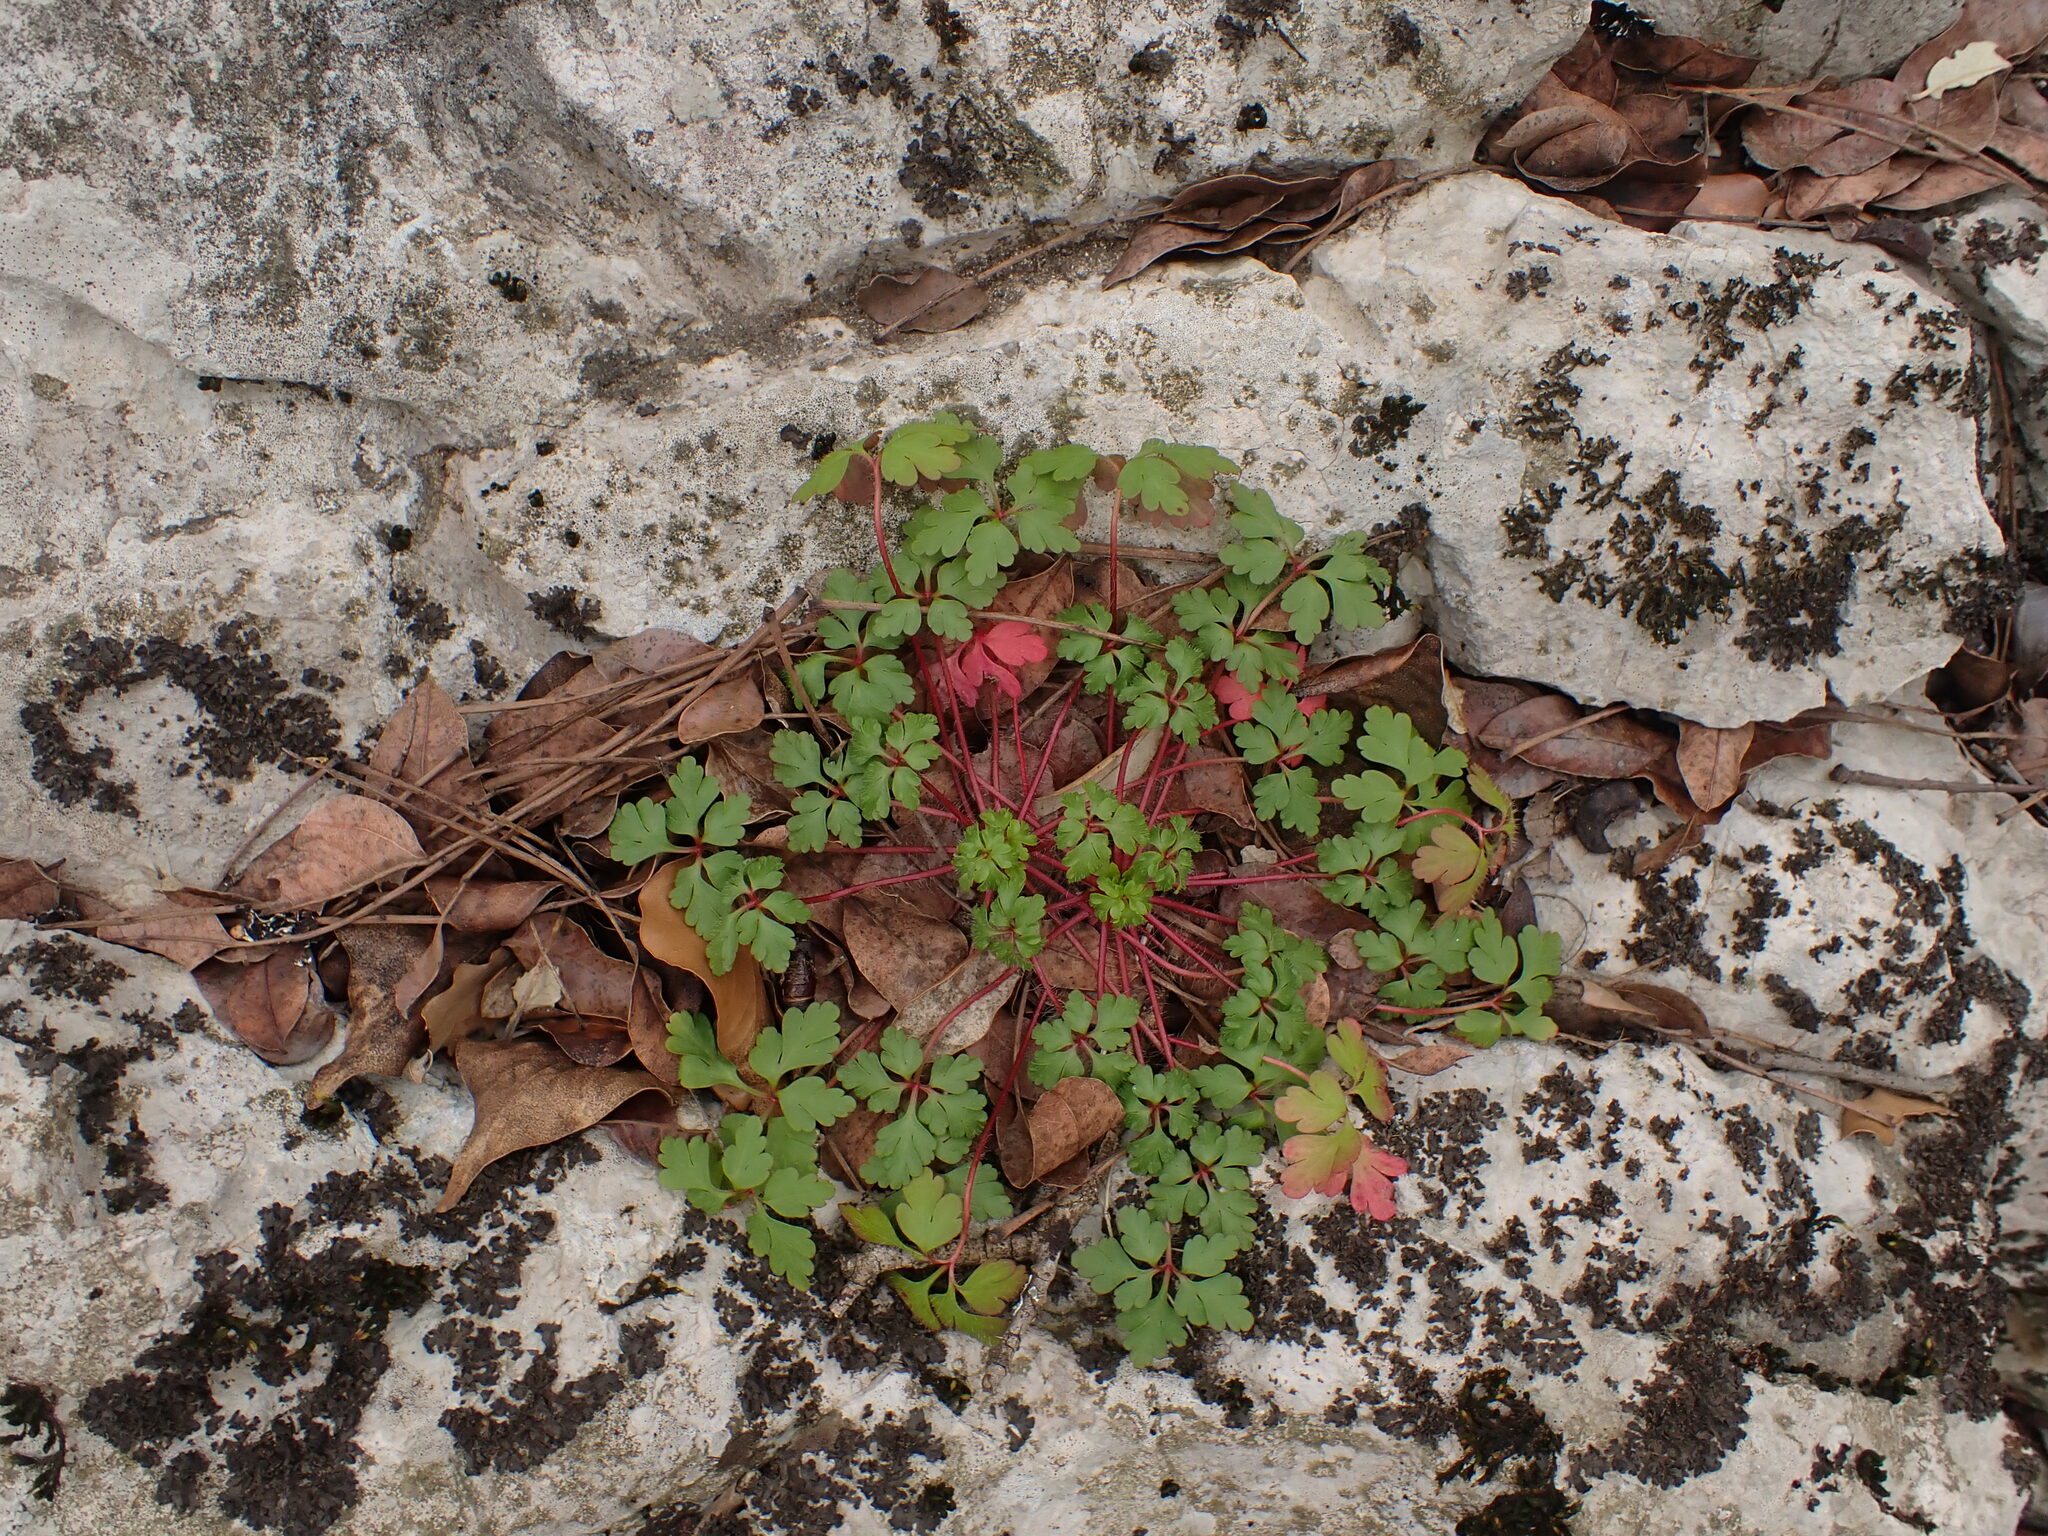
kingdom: Plantae
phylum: Tracheophyta
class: Magnoliopsida
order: Geraniales
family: Geraniaceae
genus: Geranium
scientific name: Geranium purpureum
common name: Little-robin
